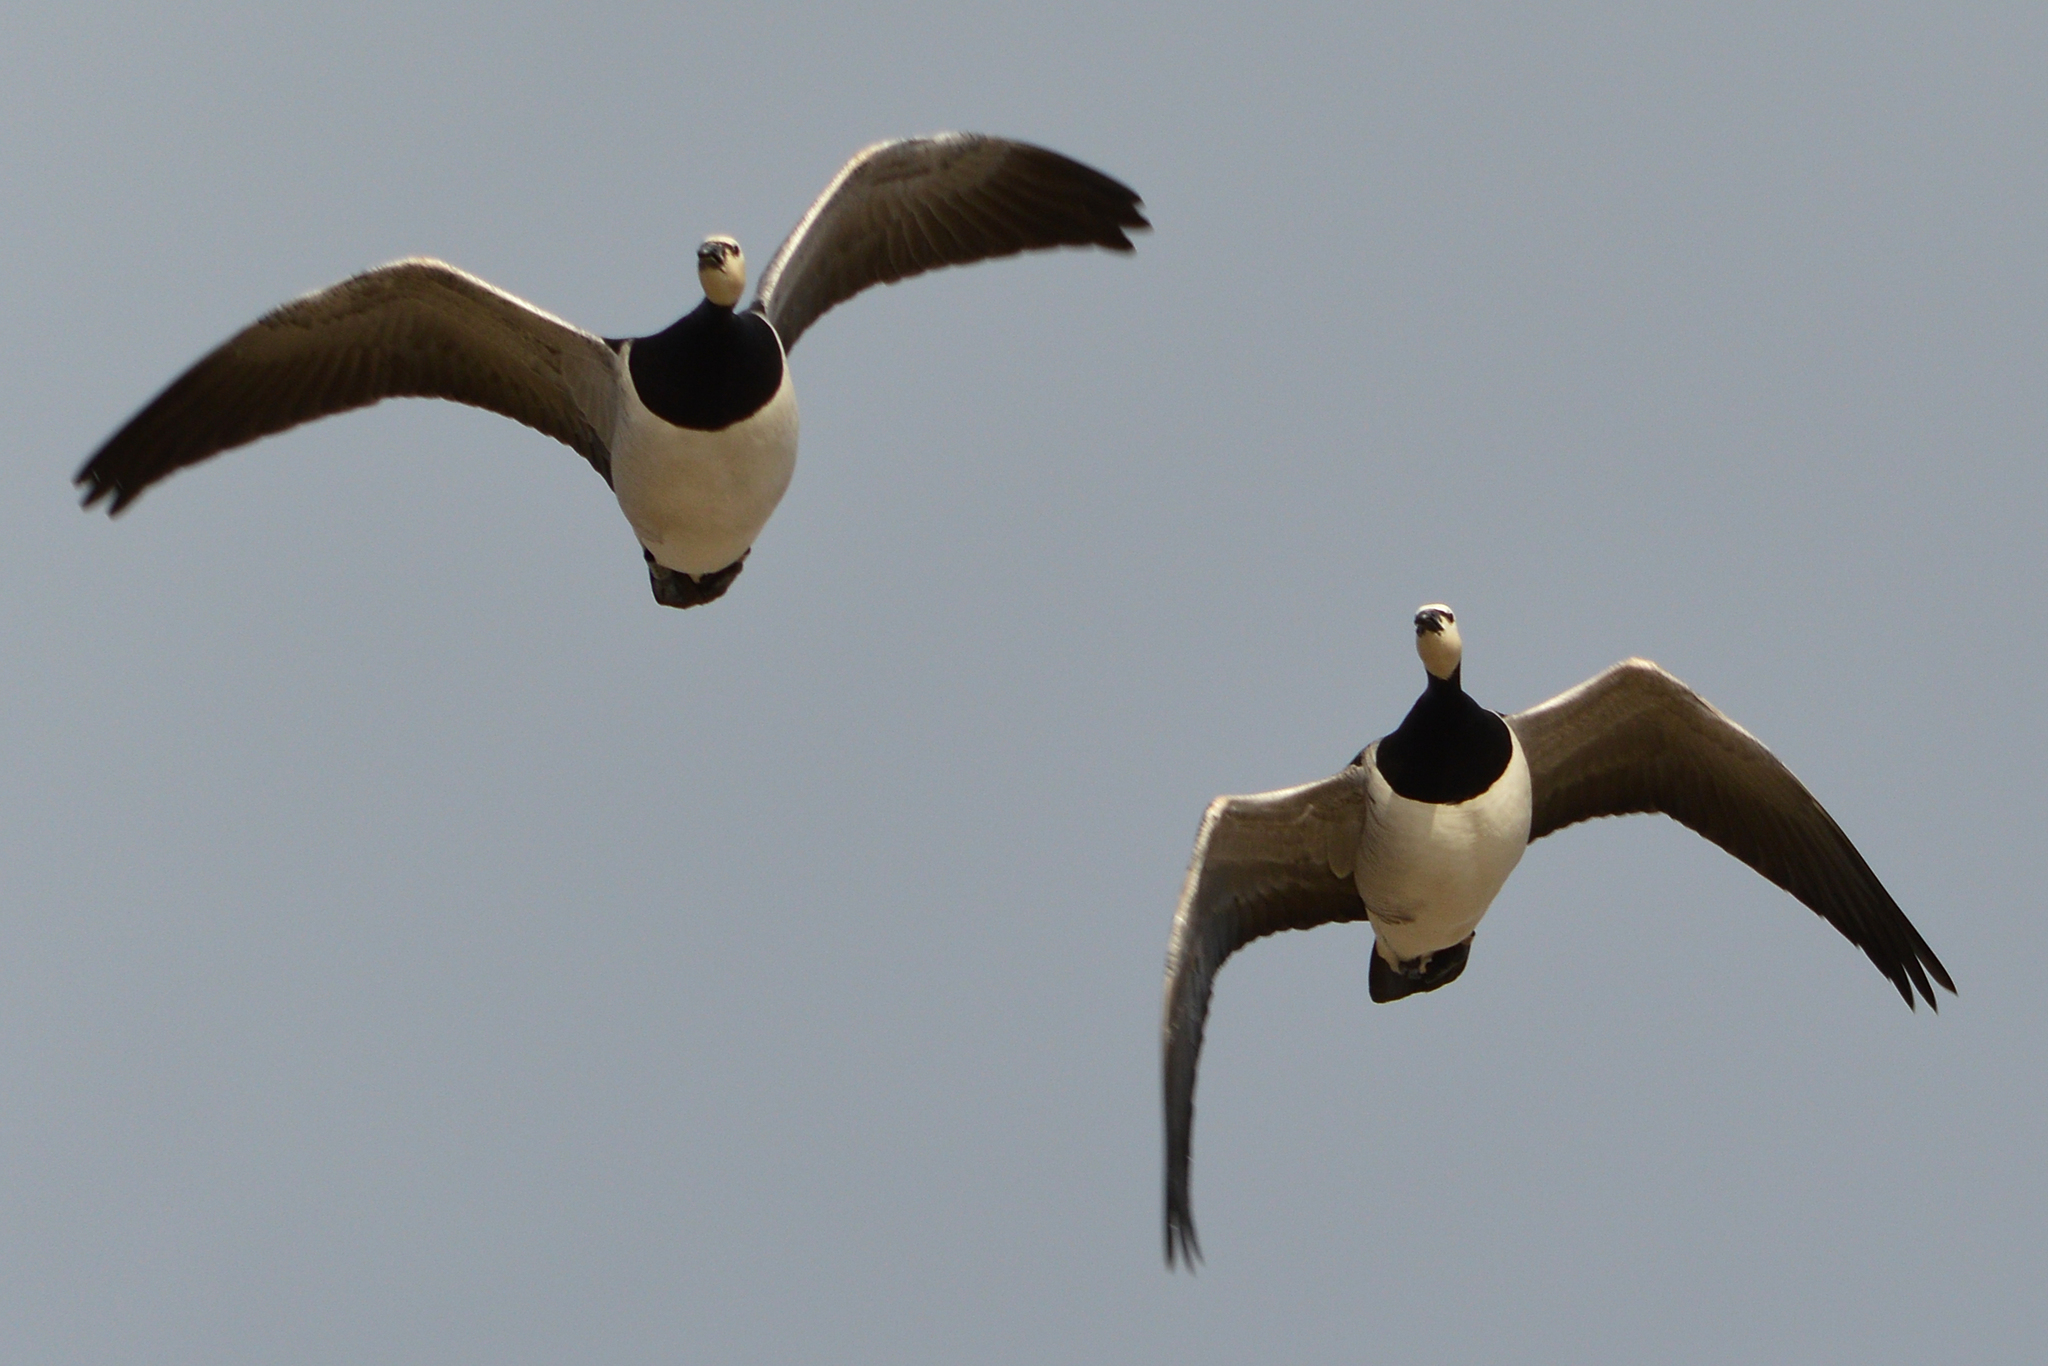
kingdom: Animalia
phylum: Chordata
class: Aves
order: Anseriformes
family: Anatidae
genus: Branta
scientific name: Branta leucopsis
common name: Barnacle goose
